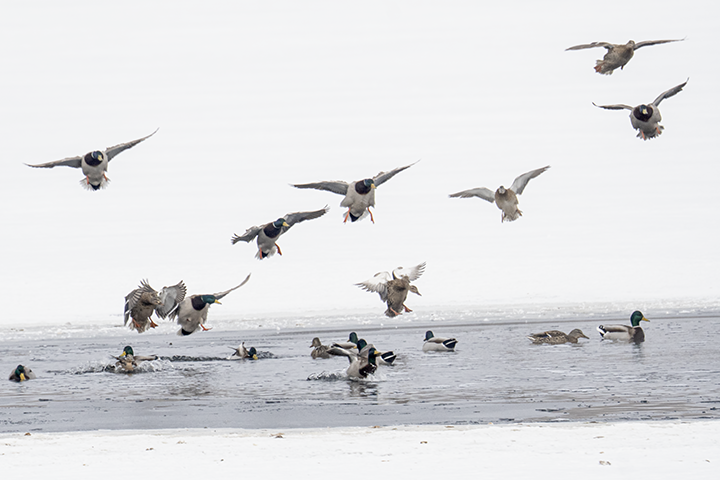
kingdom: Animalia
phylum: Chordata
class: Aves
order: Anseriformes
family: Anatidae
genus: Anas
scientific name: Anas platyrhynchos
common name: Mallard
